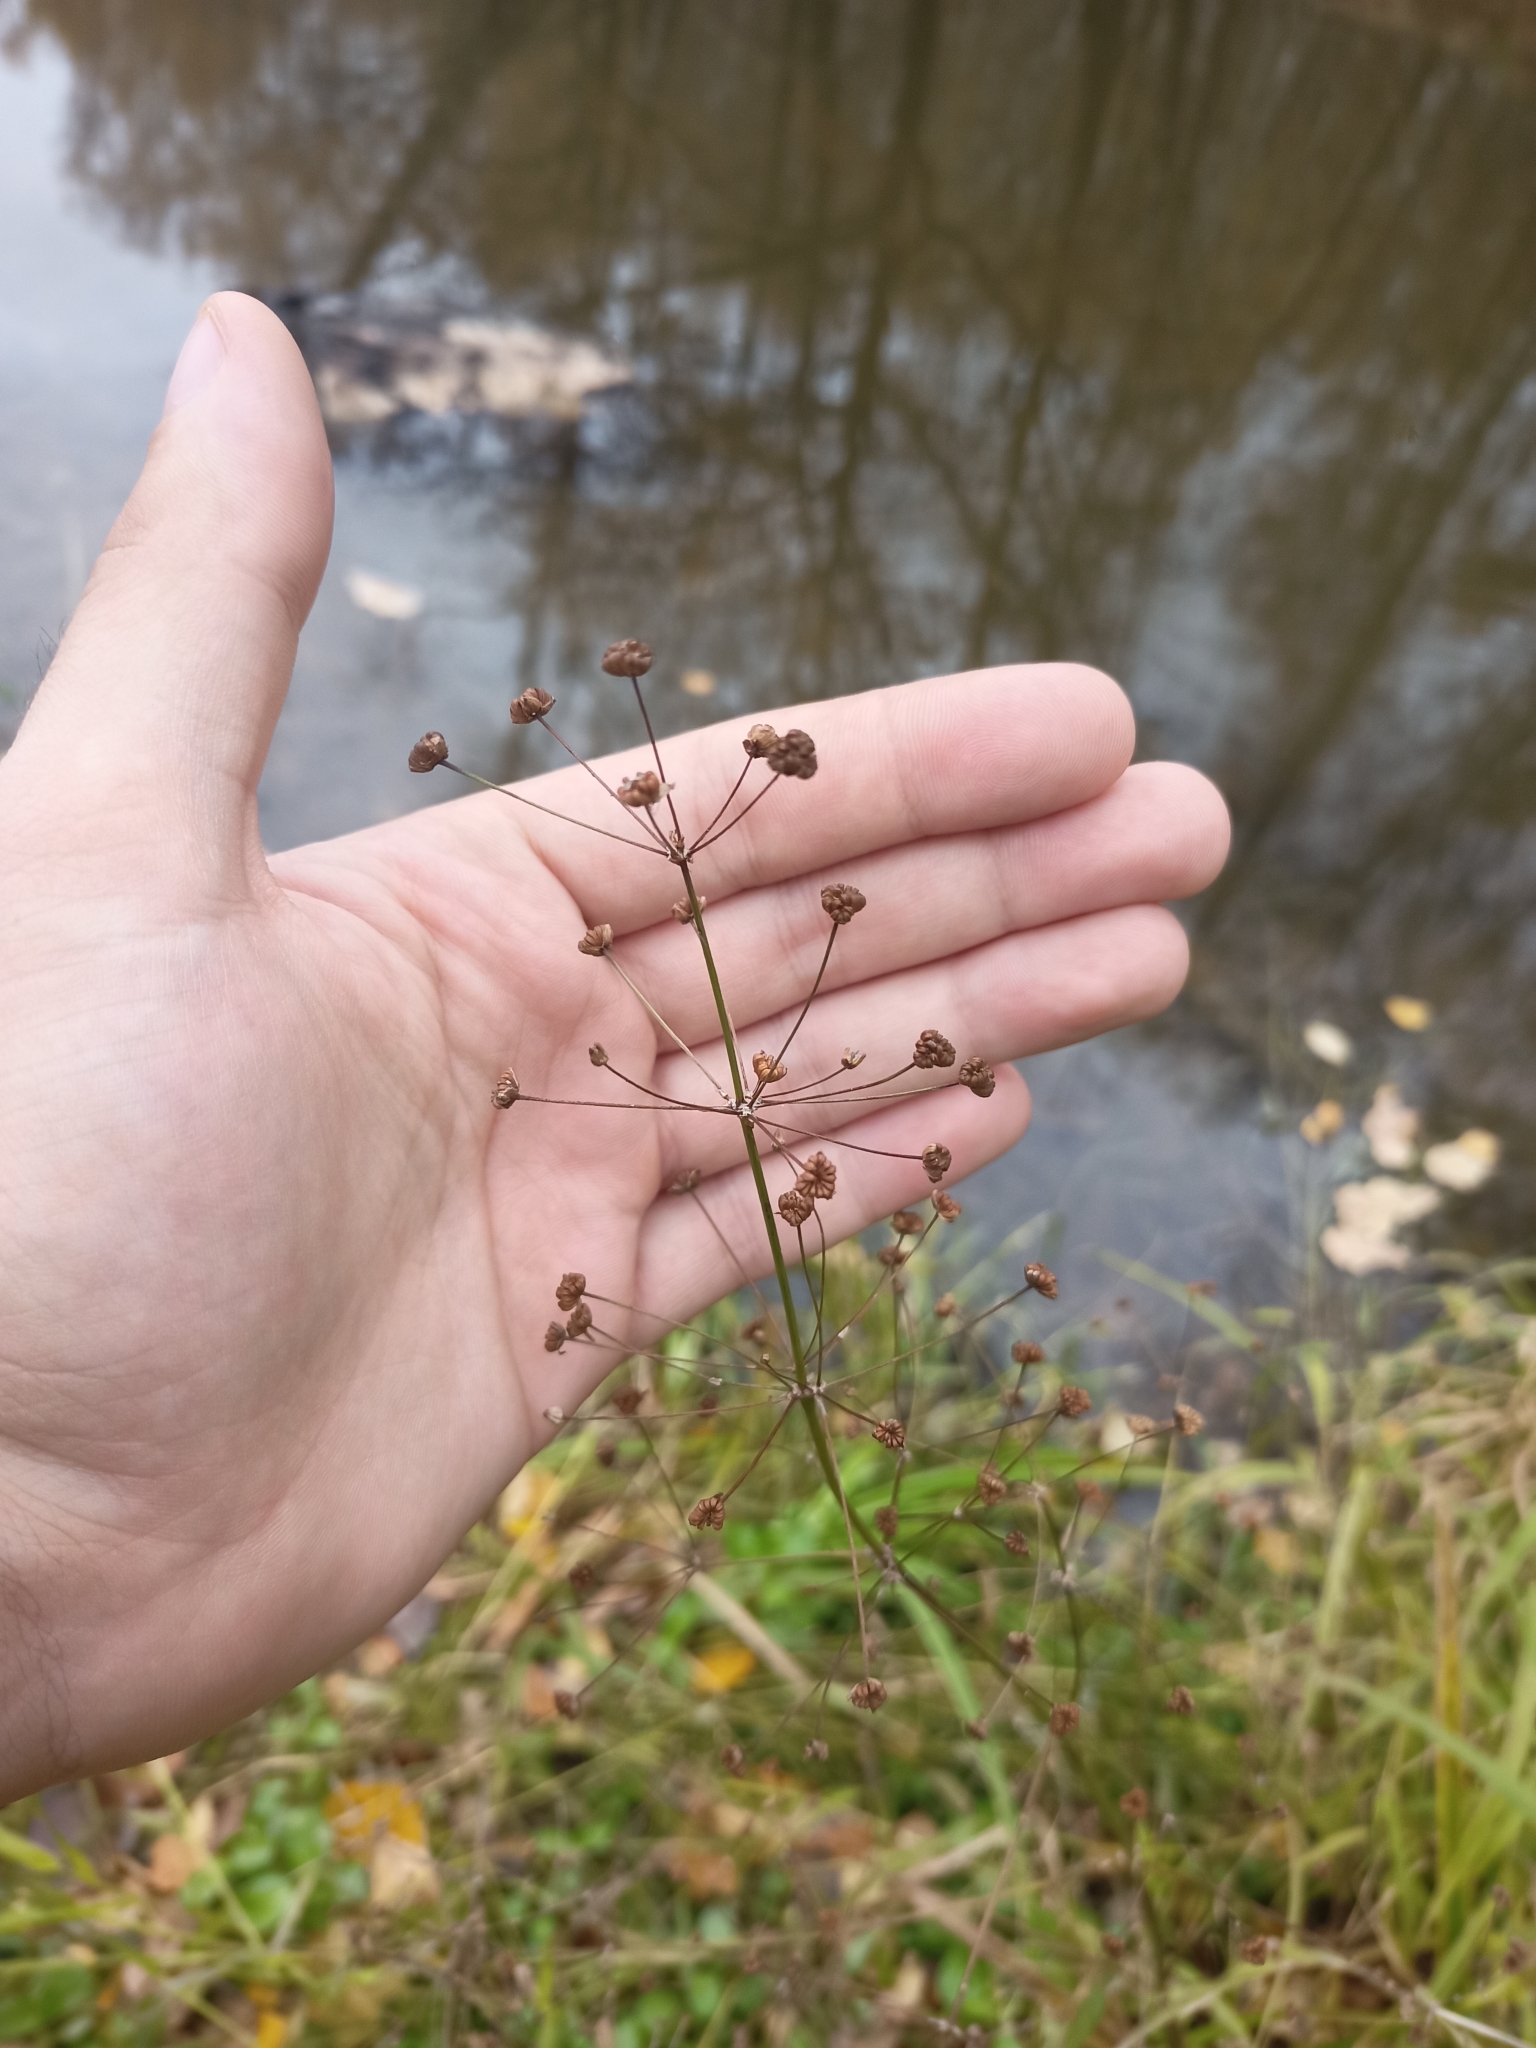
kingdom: Plantae
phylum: Tracheophyta
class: Liliopsida
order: Alismatales
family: Alismataceae
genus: Alisma
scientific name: Alisma plantago-aquatica
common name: Water-plantain
